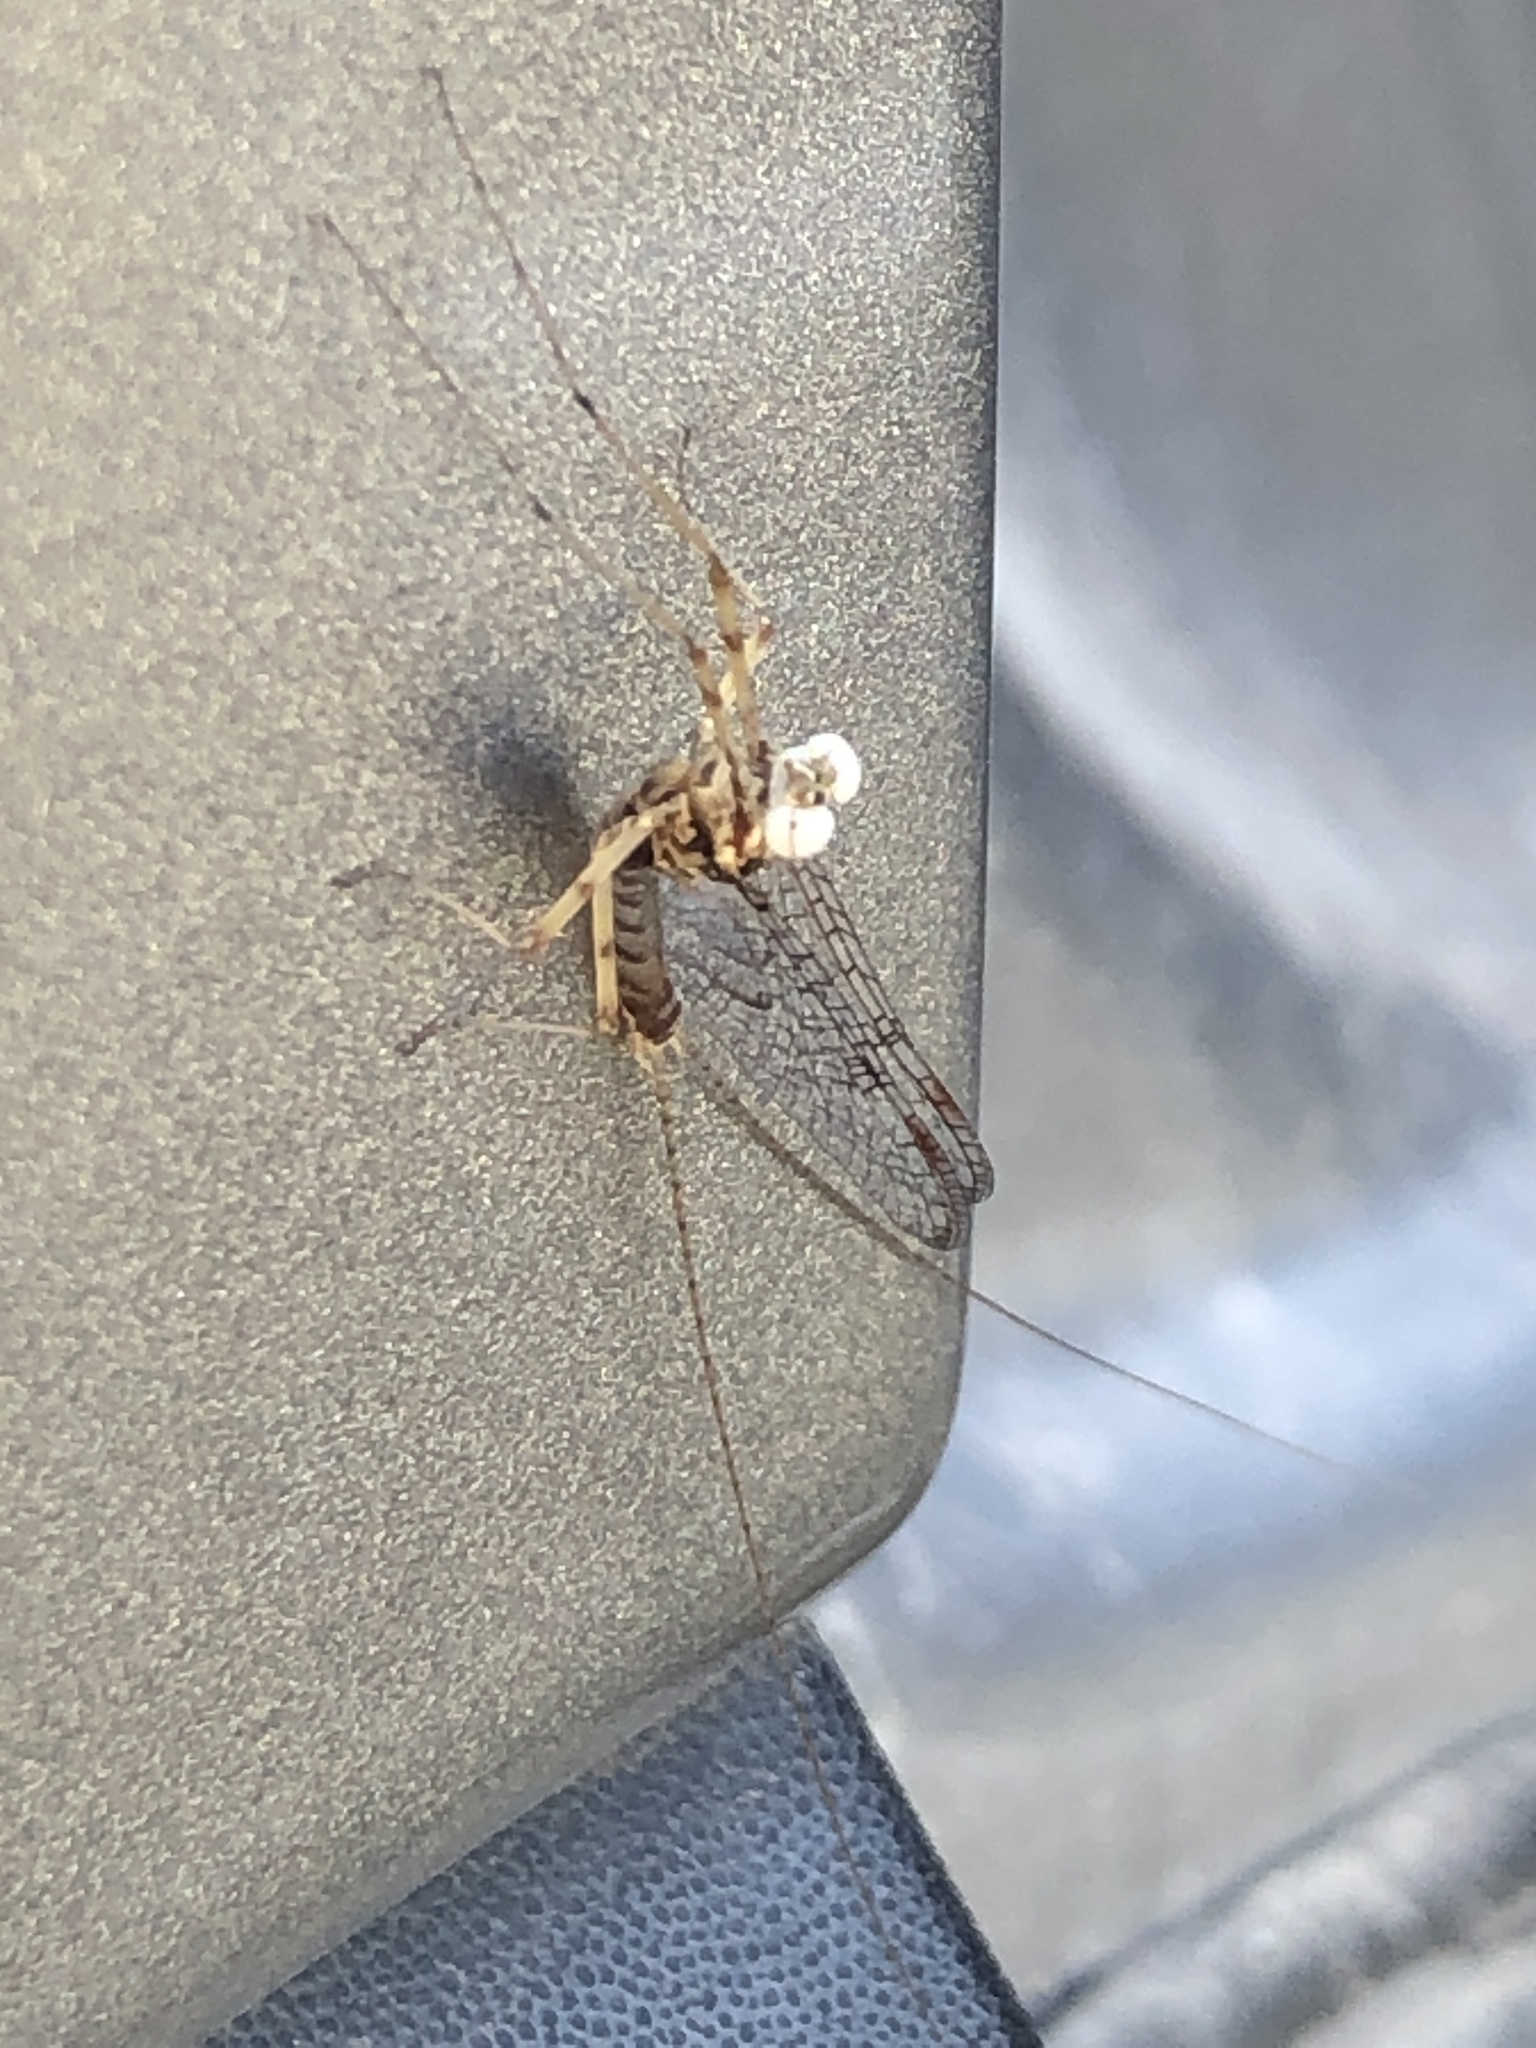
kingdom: Animalia
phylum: Arthropoda
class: Insecta
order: Ephemeroptera
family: Heptageniidae
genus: Stenonema
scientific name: Stenonema femoratum
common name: Dark cahill
